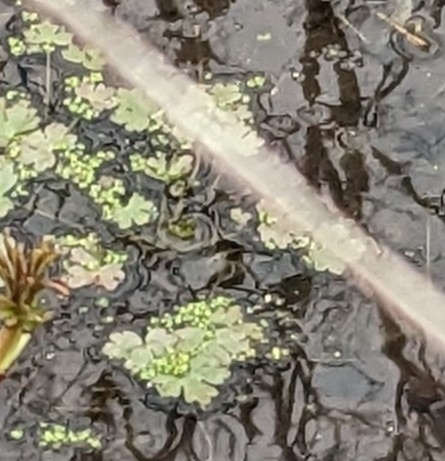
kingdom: Plantae
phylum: Tracheophyta
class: Magnoliopsida
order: Ranunculales
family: Ranunculaceae
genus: Ranunculus
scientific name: Ranunculus sceleratus
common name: Celery-leaved buttercup
